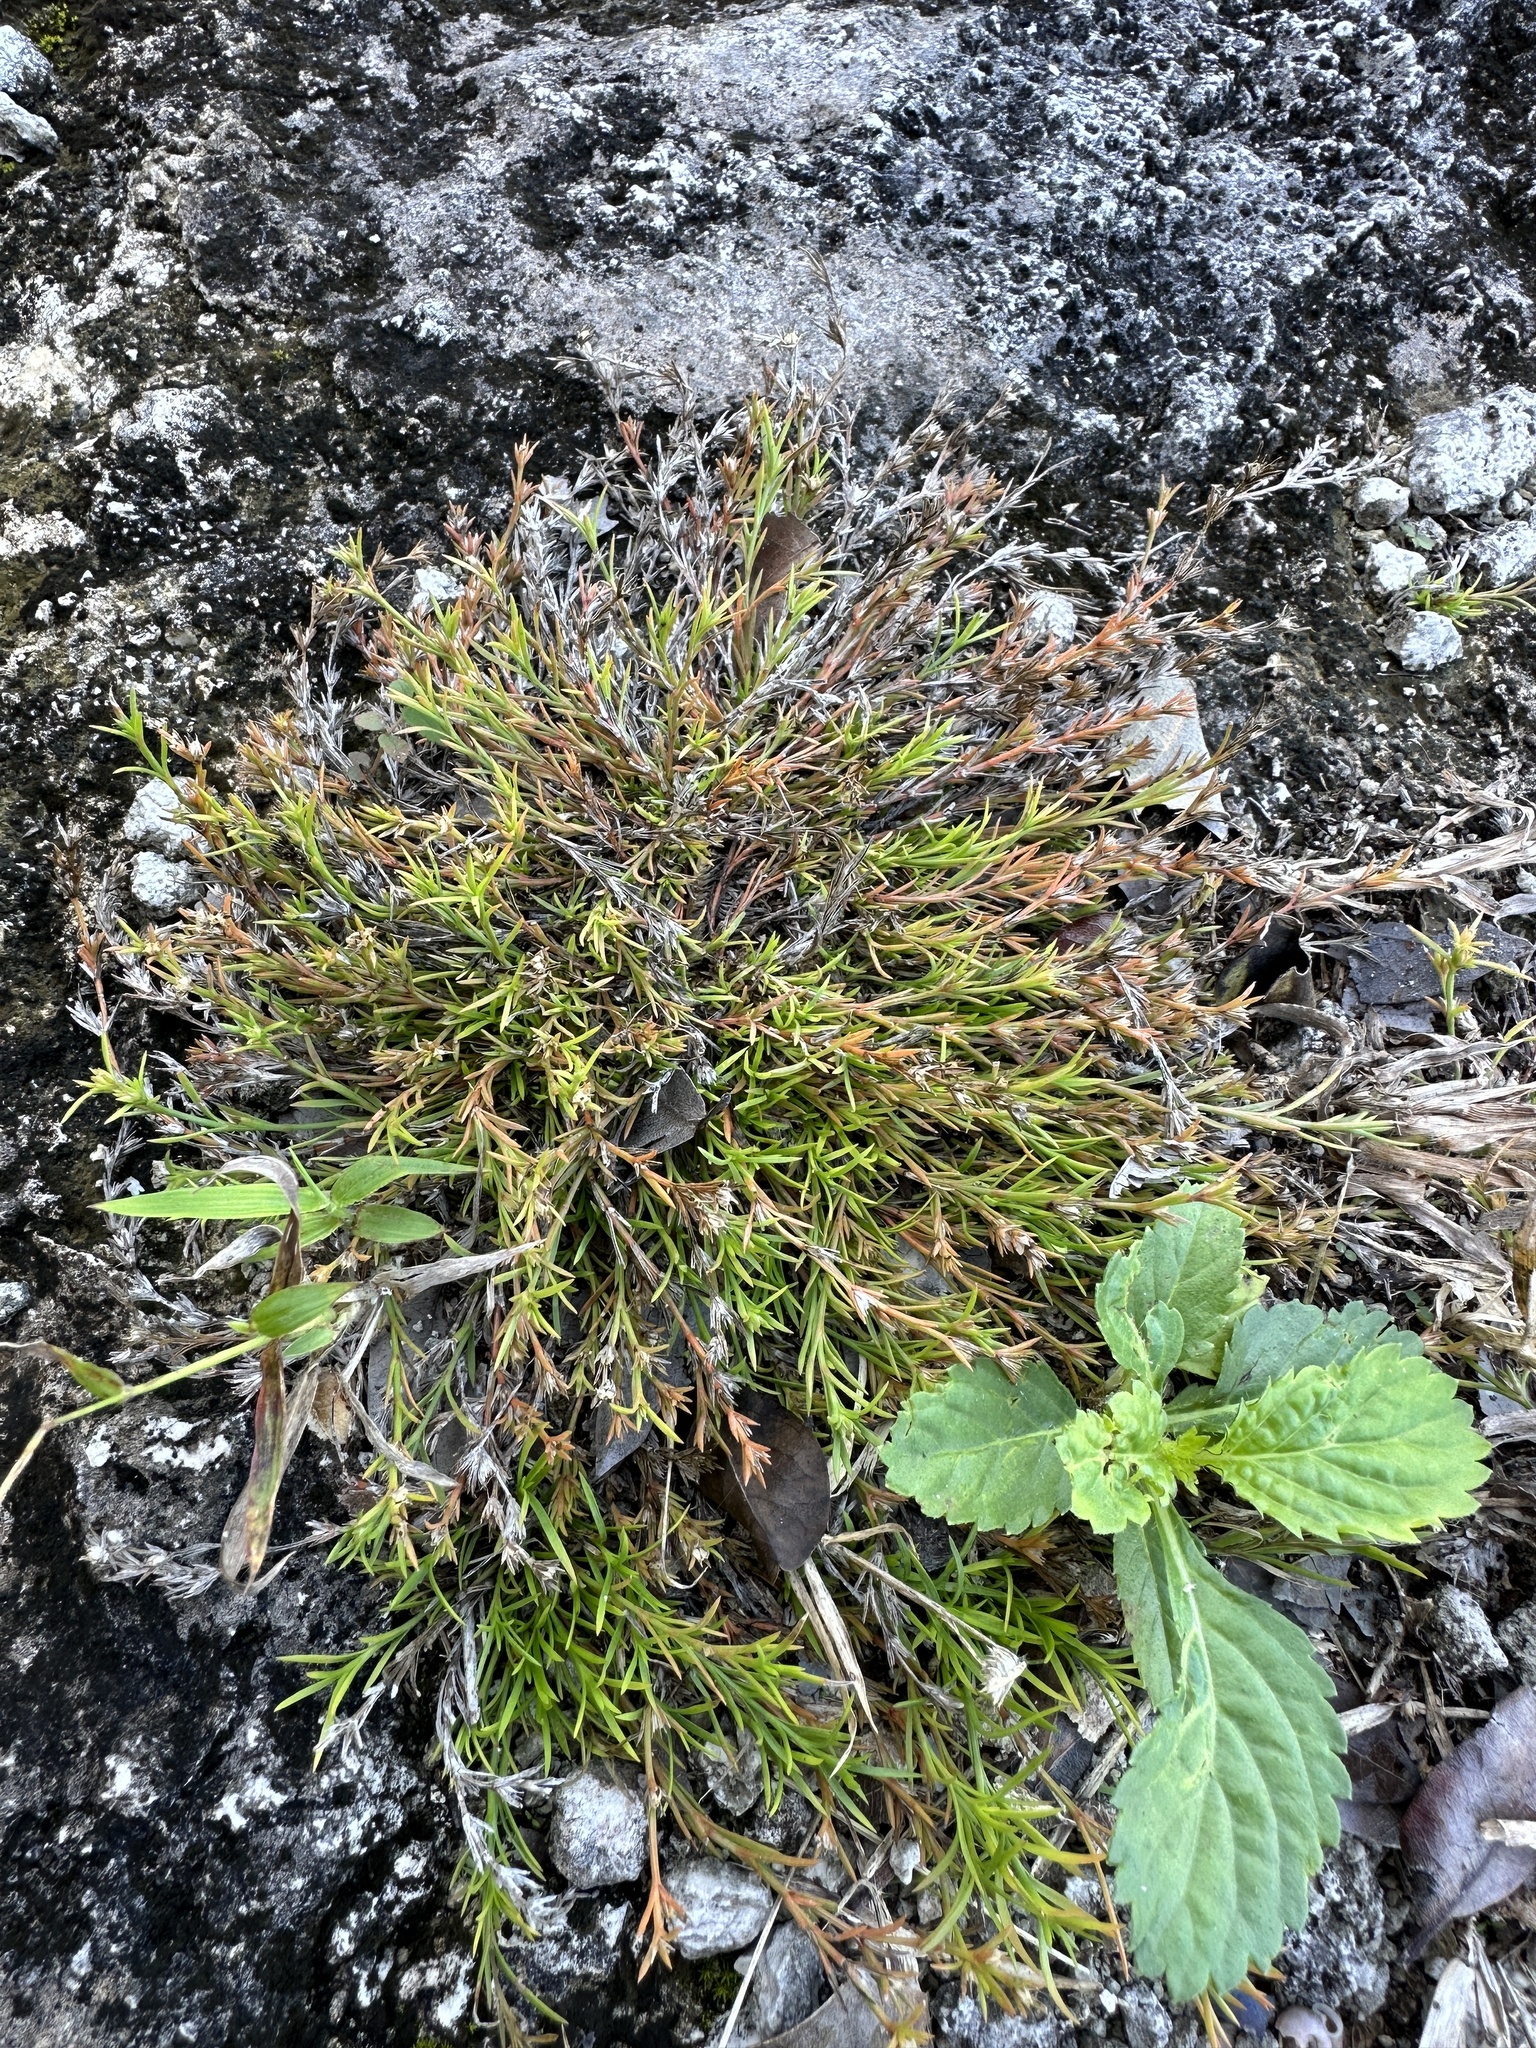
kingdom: Plantae
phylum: Tracheophyta
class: Magnoliopsida
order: Lamiales
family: Tetrachondraceae
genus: Polypremum
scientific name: Polypremum procumbens
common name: Juniper-leaf
